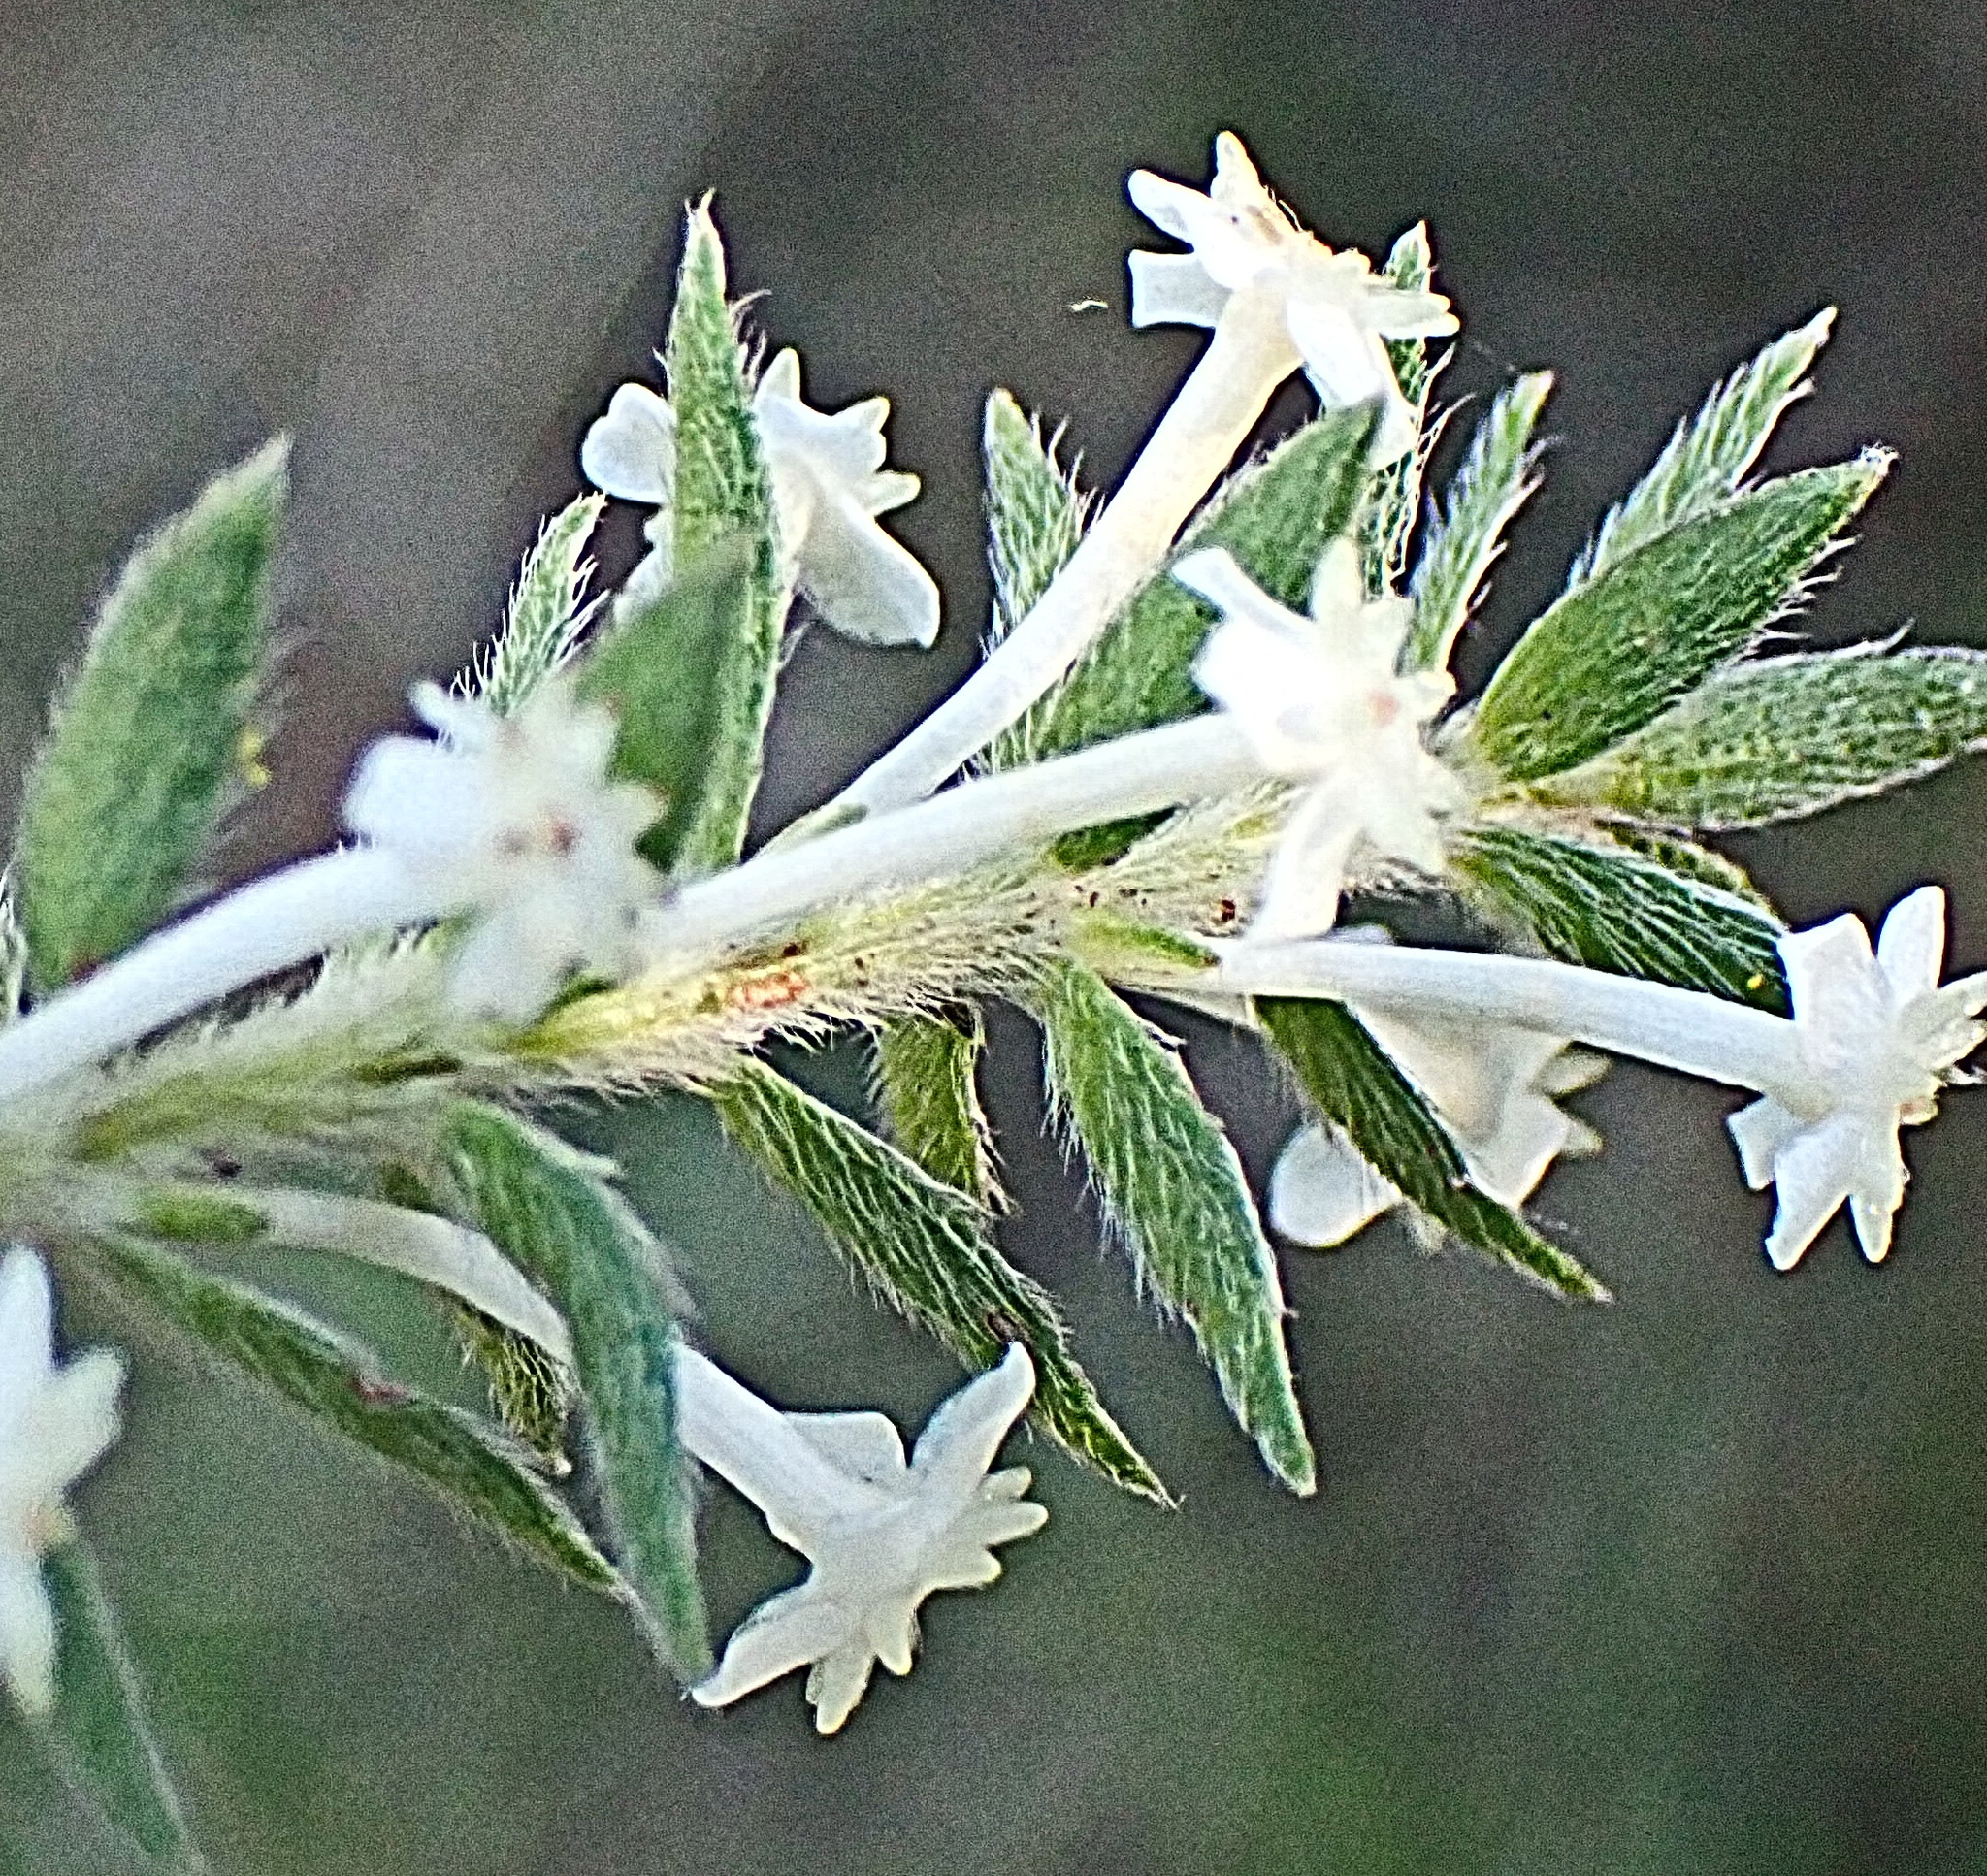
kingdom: Plantae
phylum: Tracheophyta
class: Magnoliopsida
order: Malvales
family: Thymelaeaceae
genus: Struthiola
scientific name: Struthiola hirsuta
